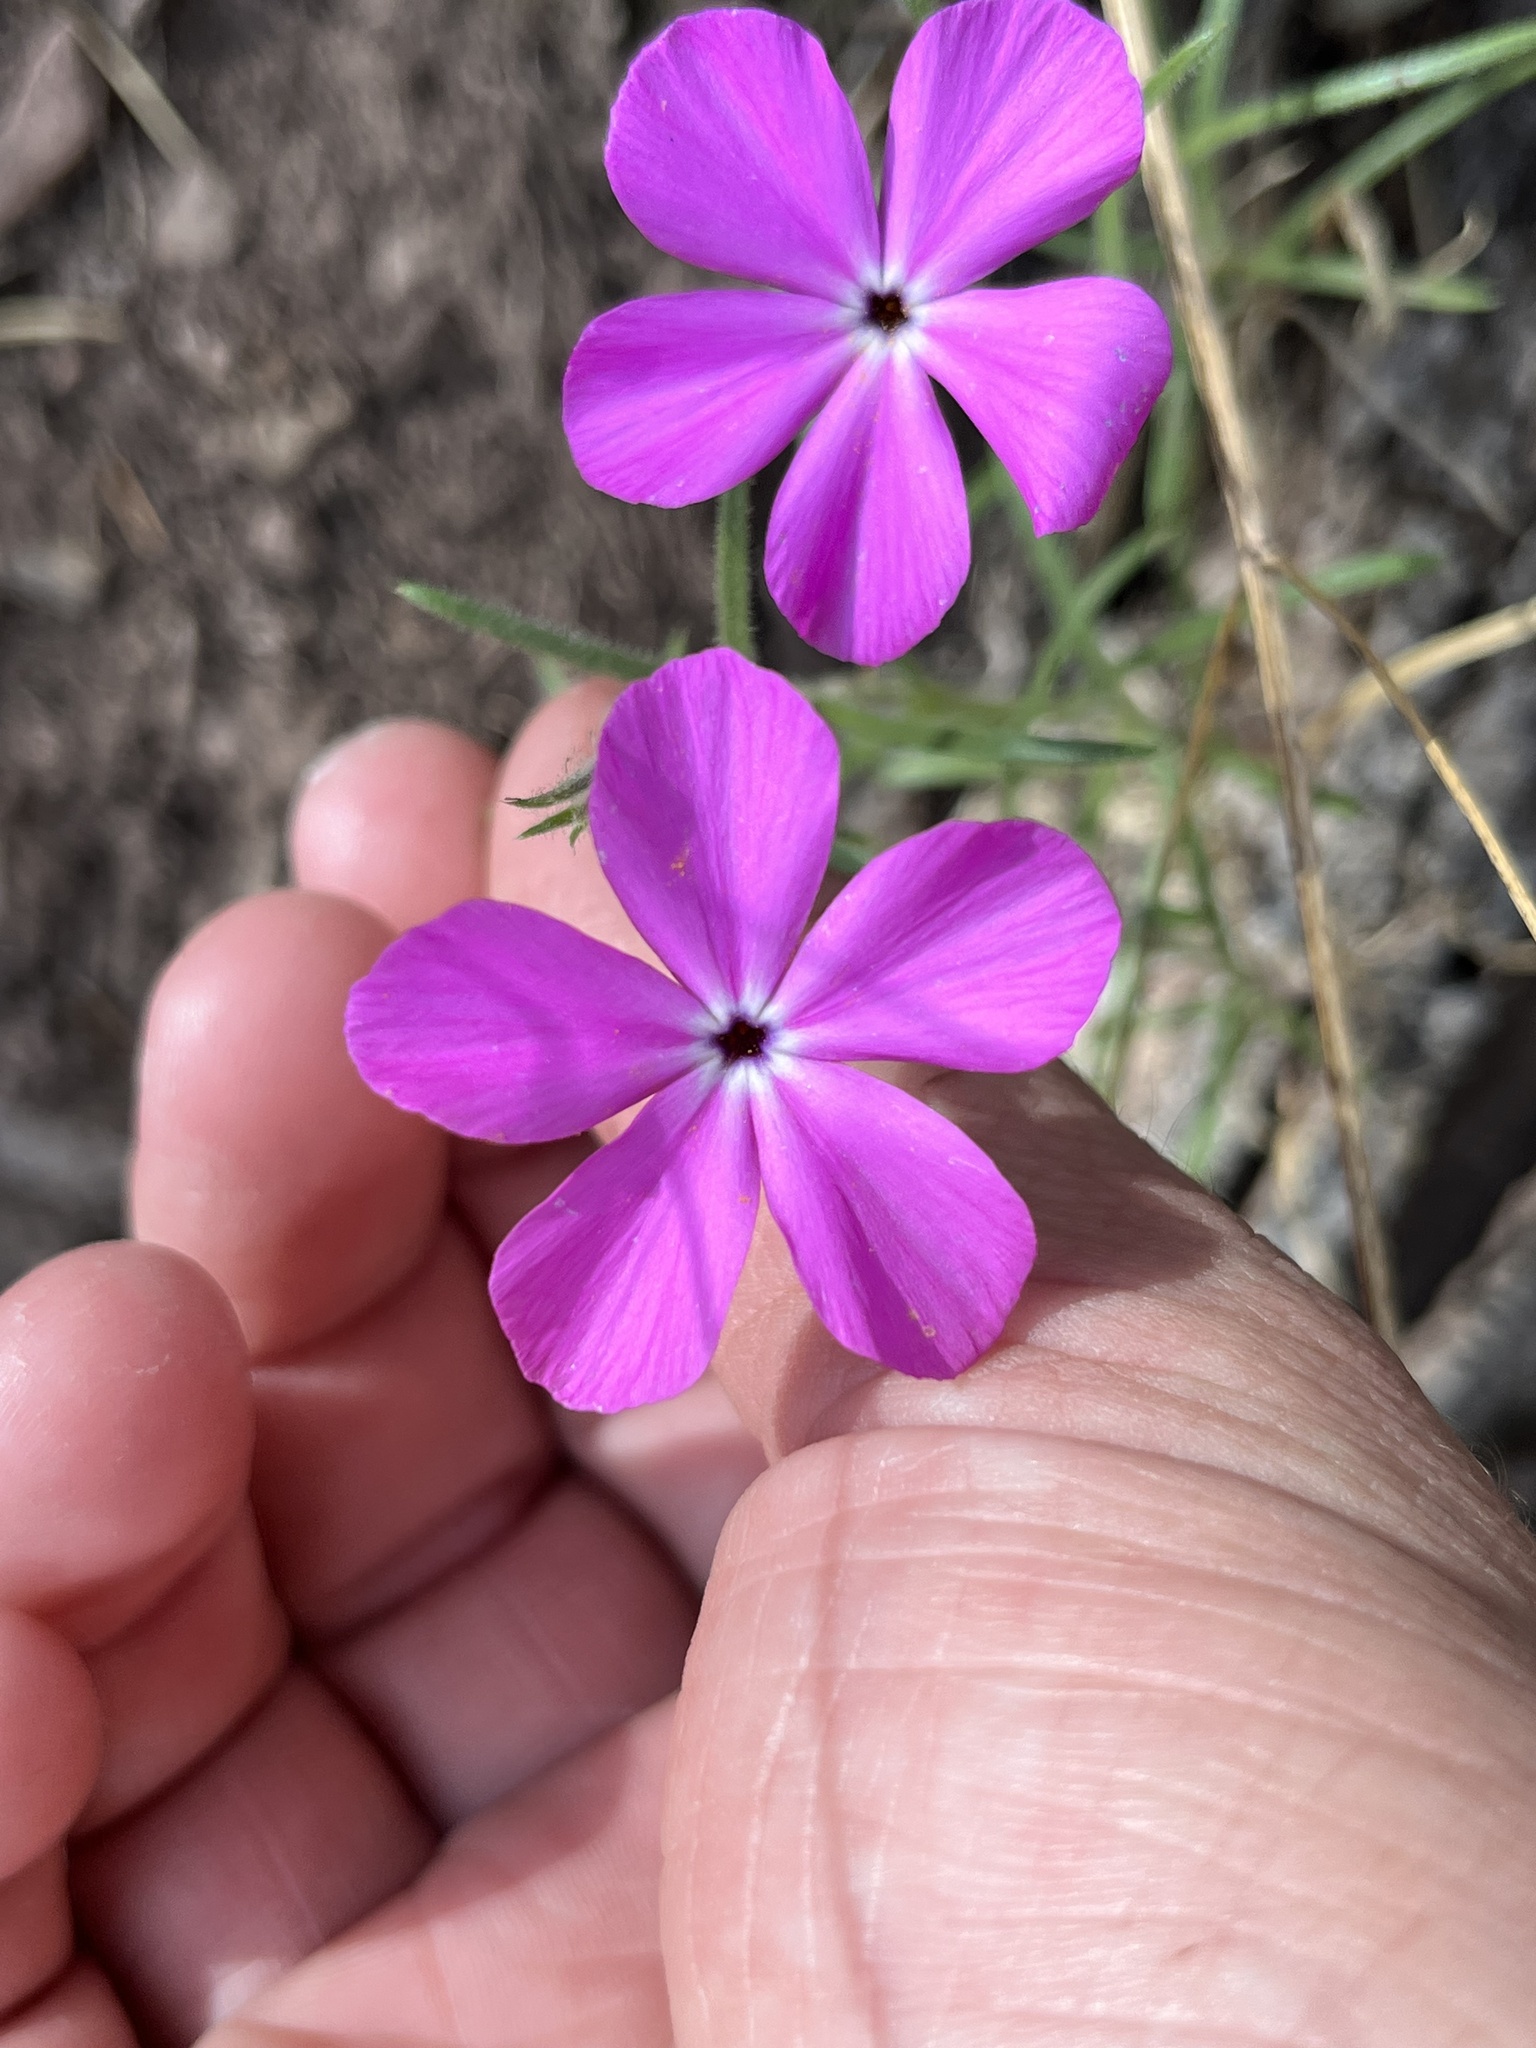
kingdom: Plantae
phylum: Tracheophyta
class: Magnoliopsida
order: Ericales
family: Polemoniaceae
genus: Phlox
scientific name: Phlox nana
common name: Santa fe phlox
